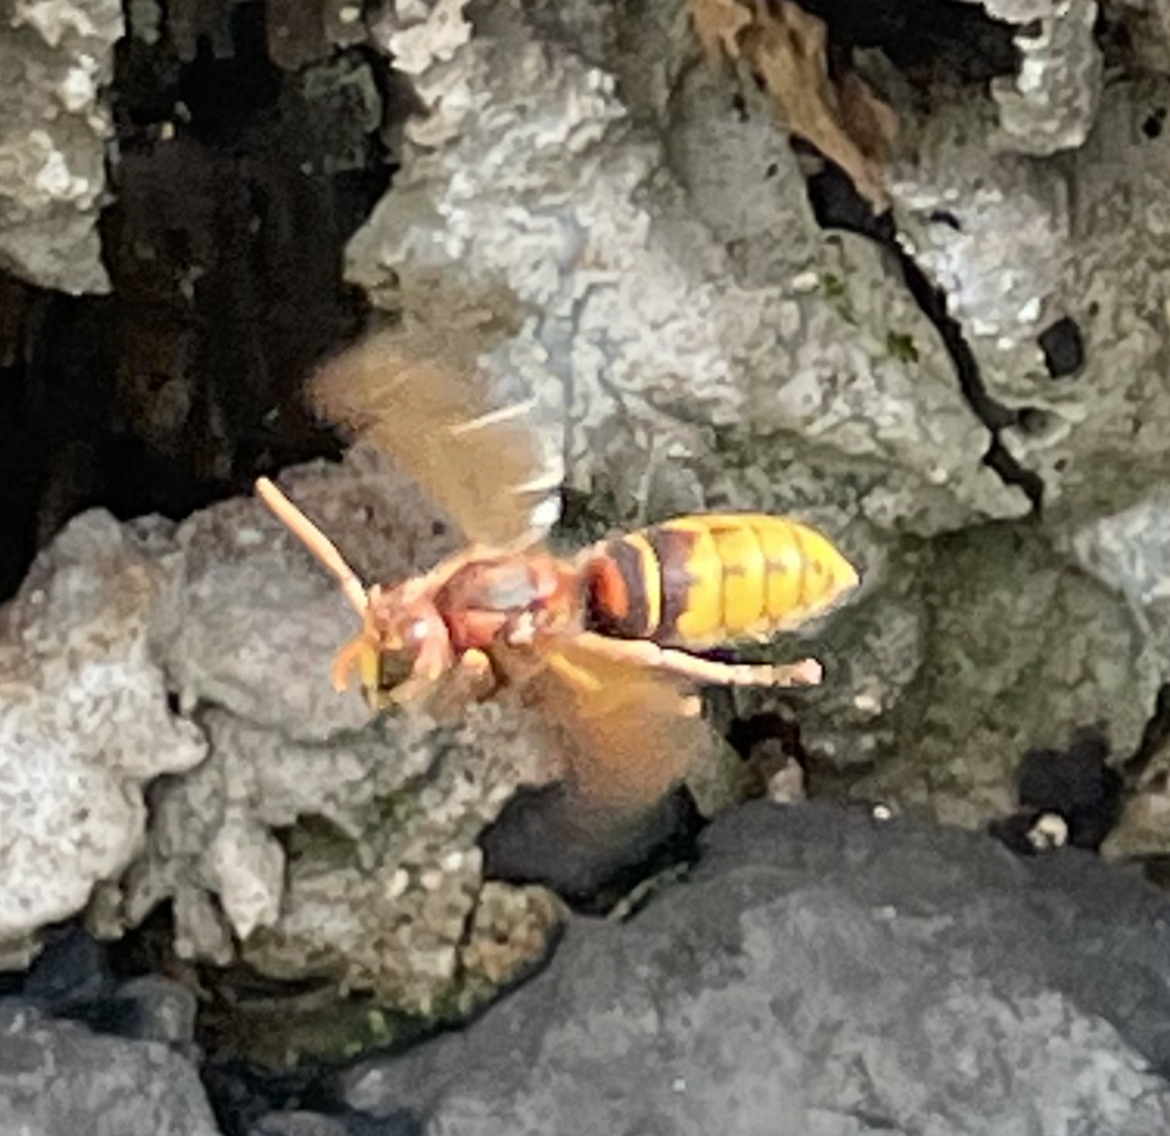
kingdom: Animalia
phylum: Arthropoda
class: Insecta
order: Hymenoptera
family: Vespidae
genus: Vespa
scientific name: Vespa crabro
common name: Hornet
